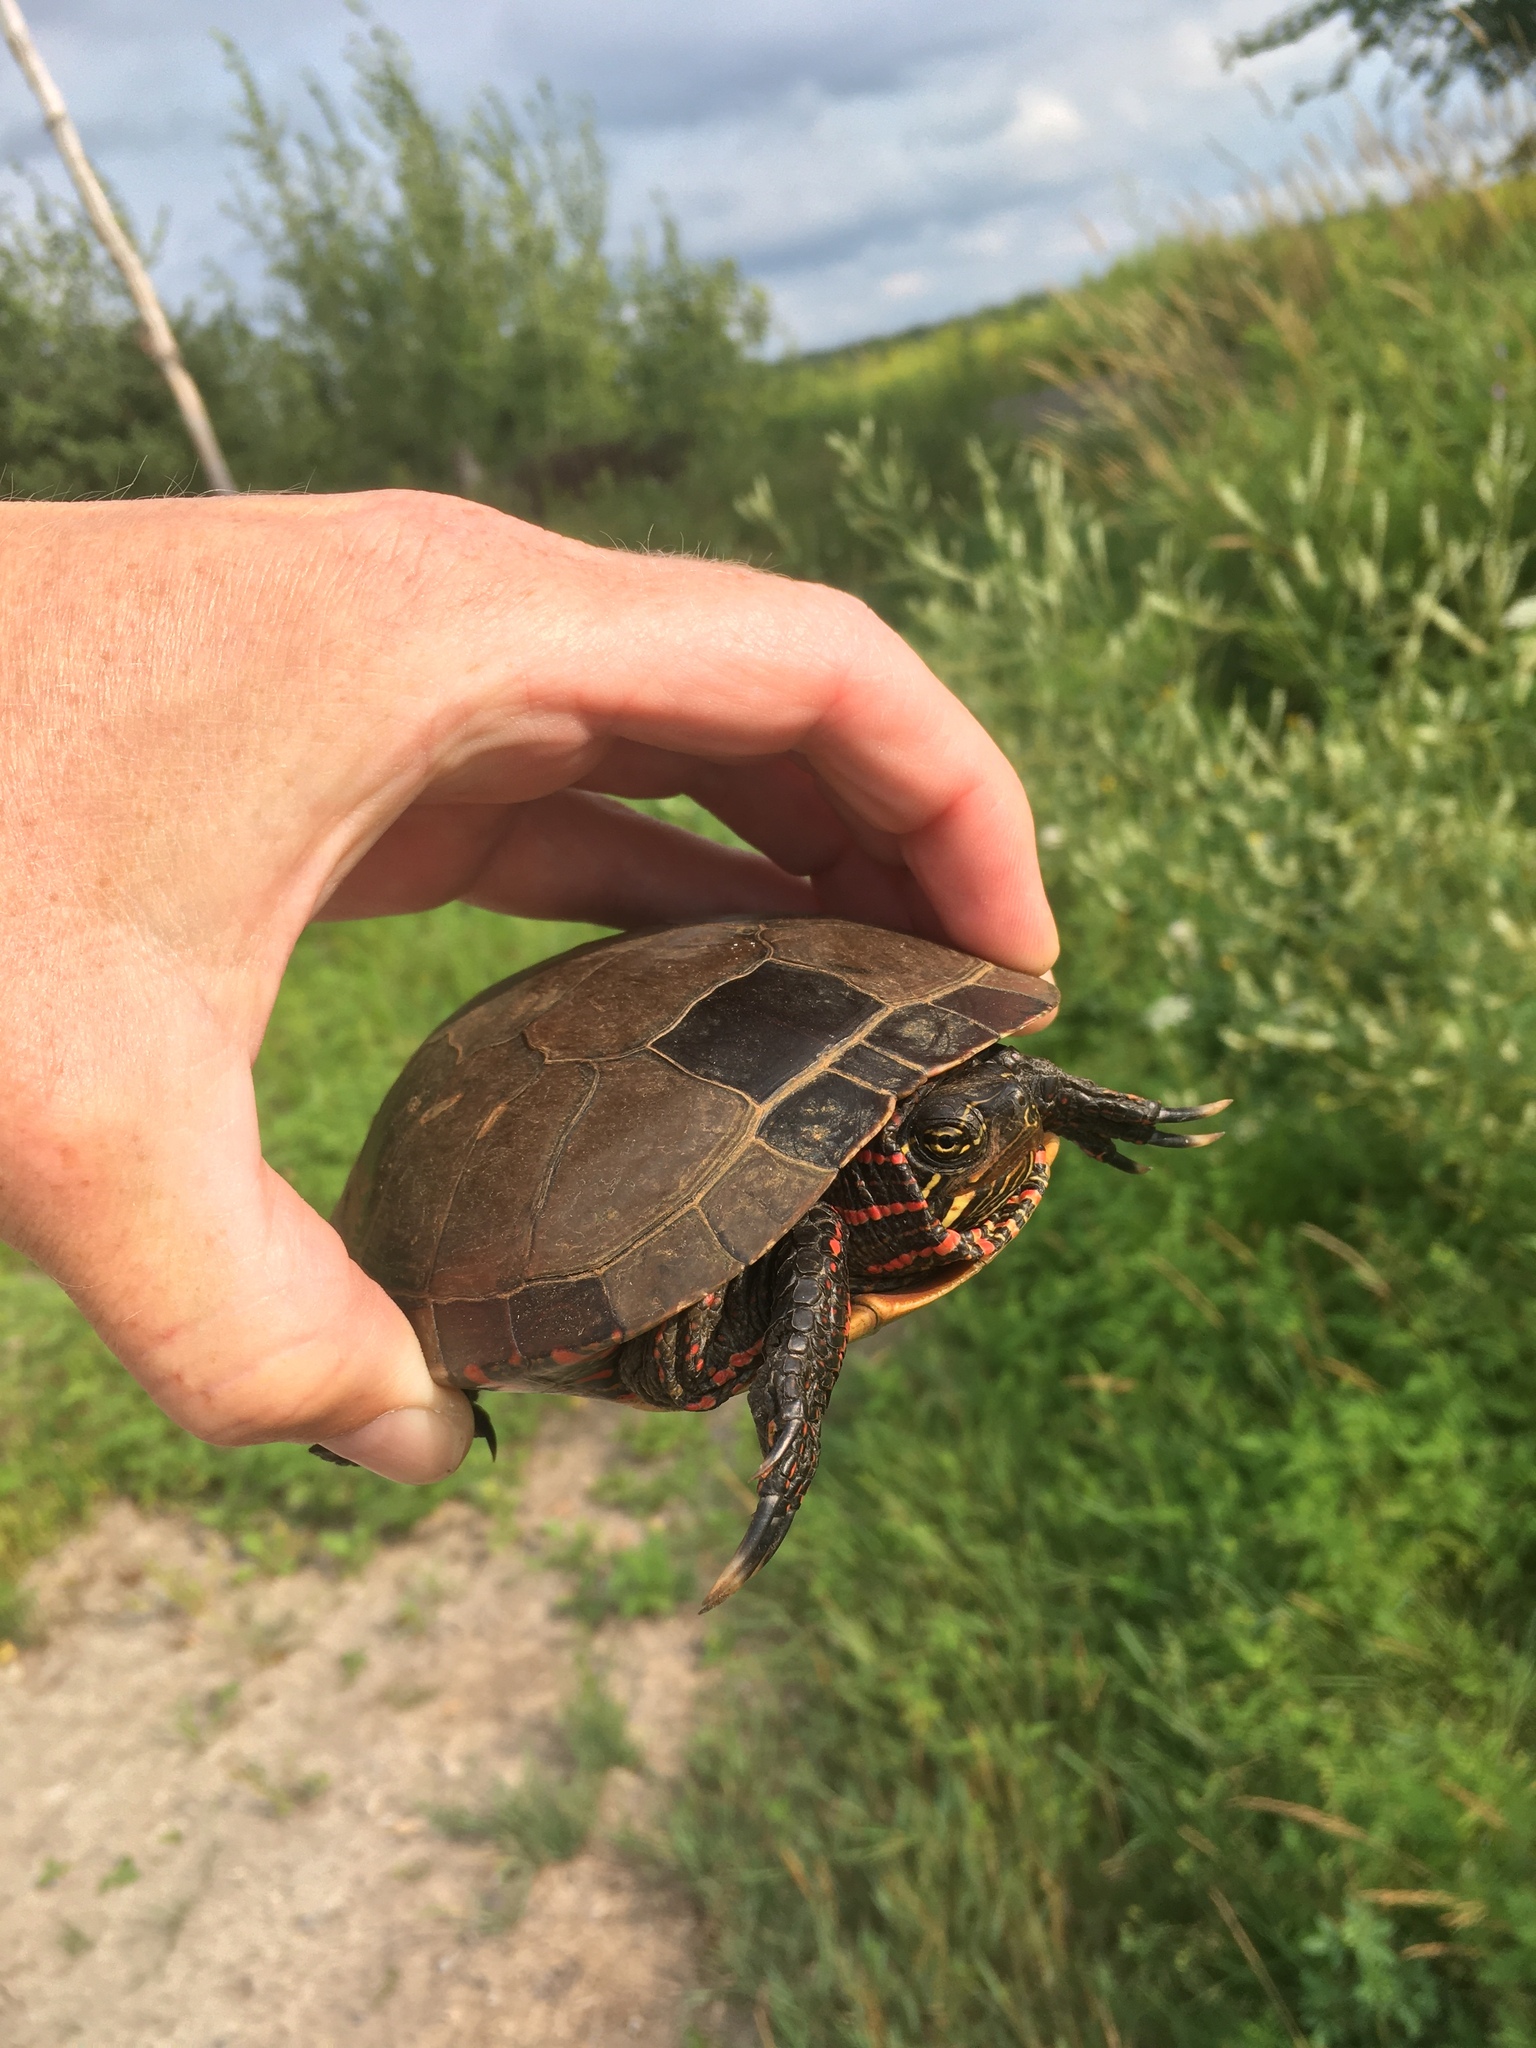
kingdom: Animalia
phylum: Chordata
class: Testudines
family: Emydidae
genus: Chrysemys
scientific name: Chrysemys picta
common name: Painted turtle
